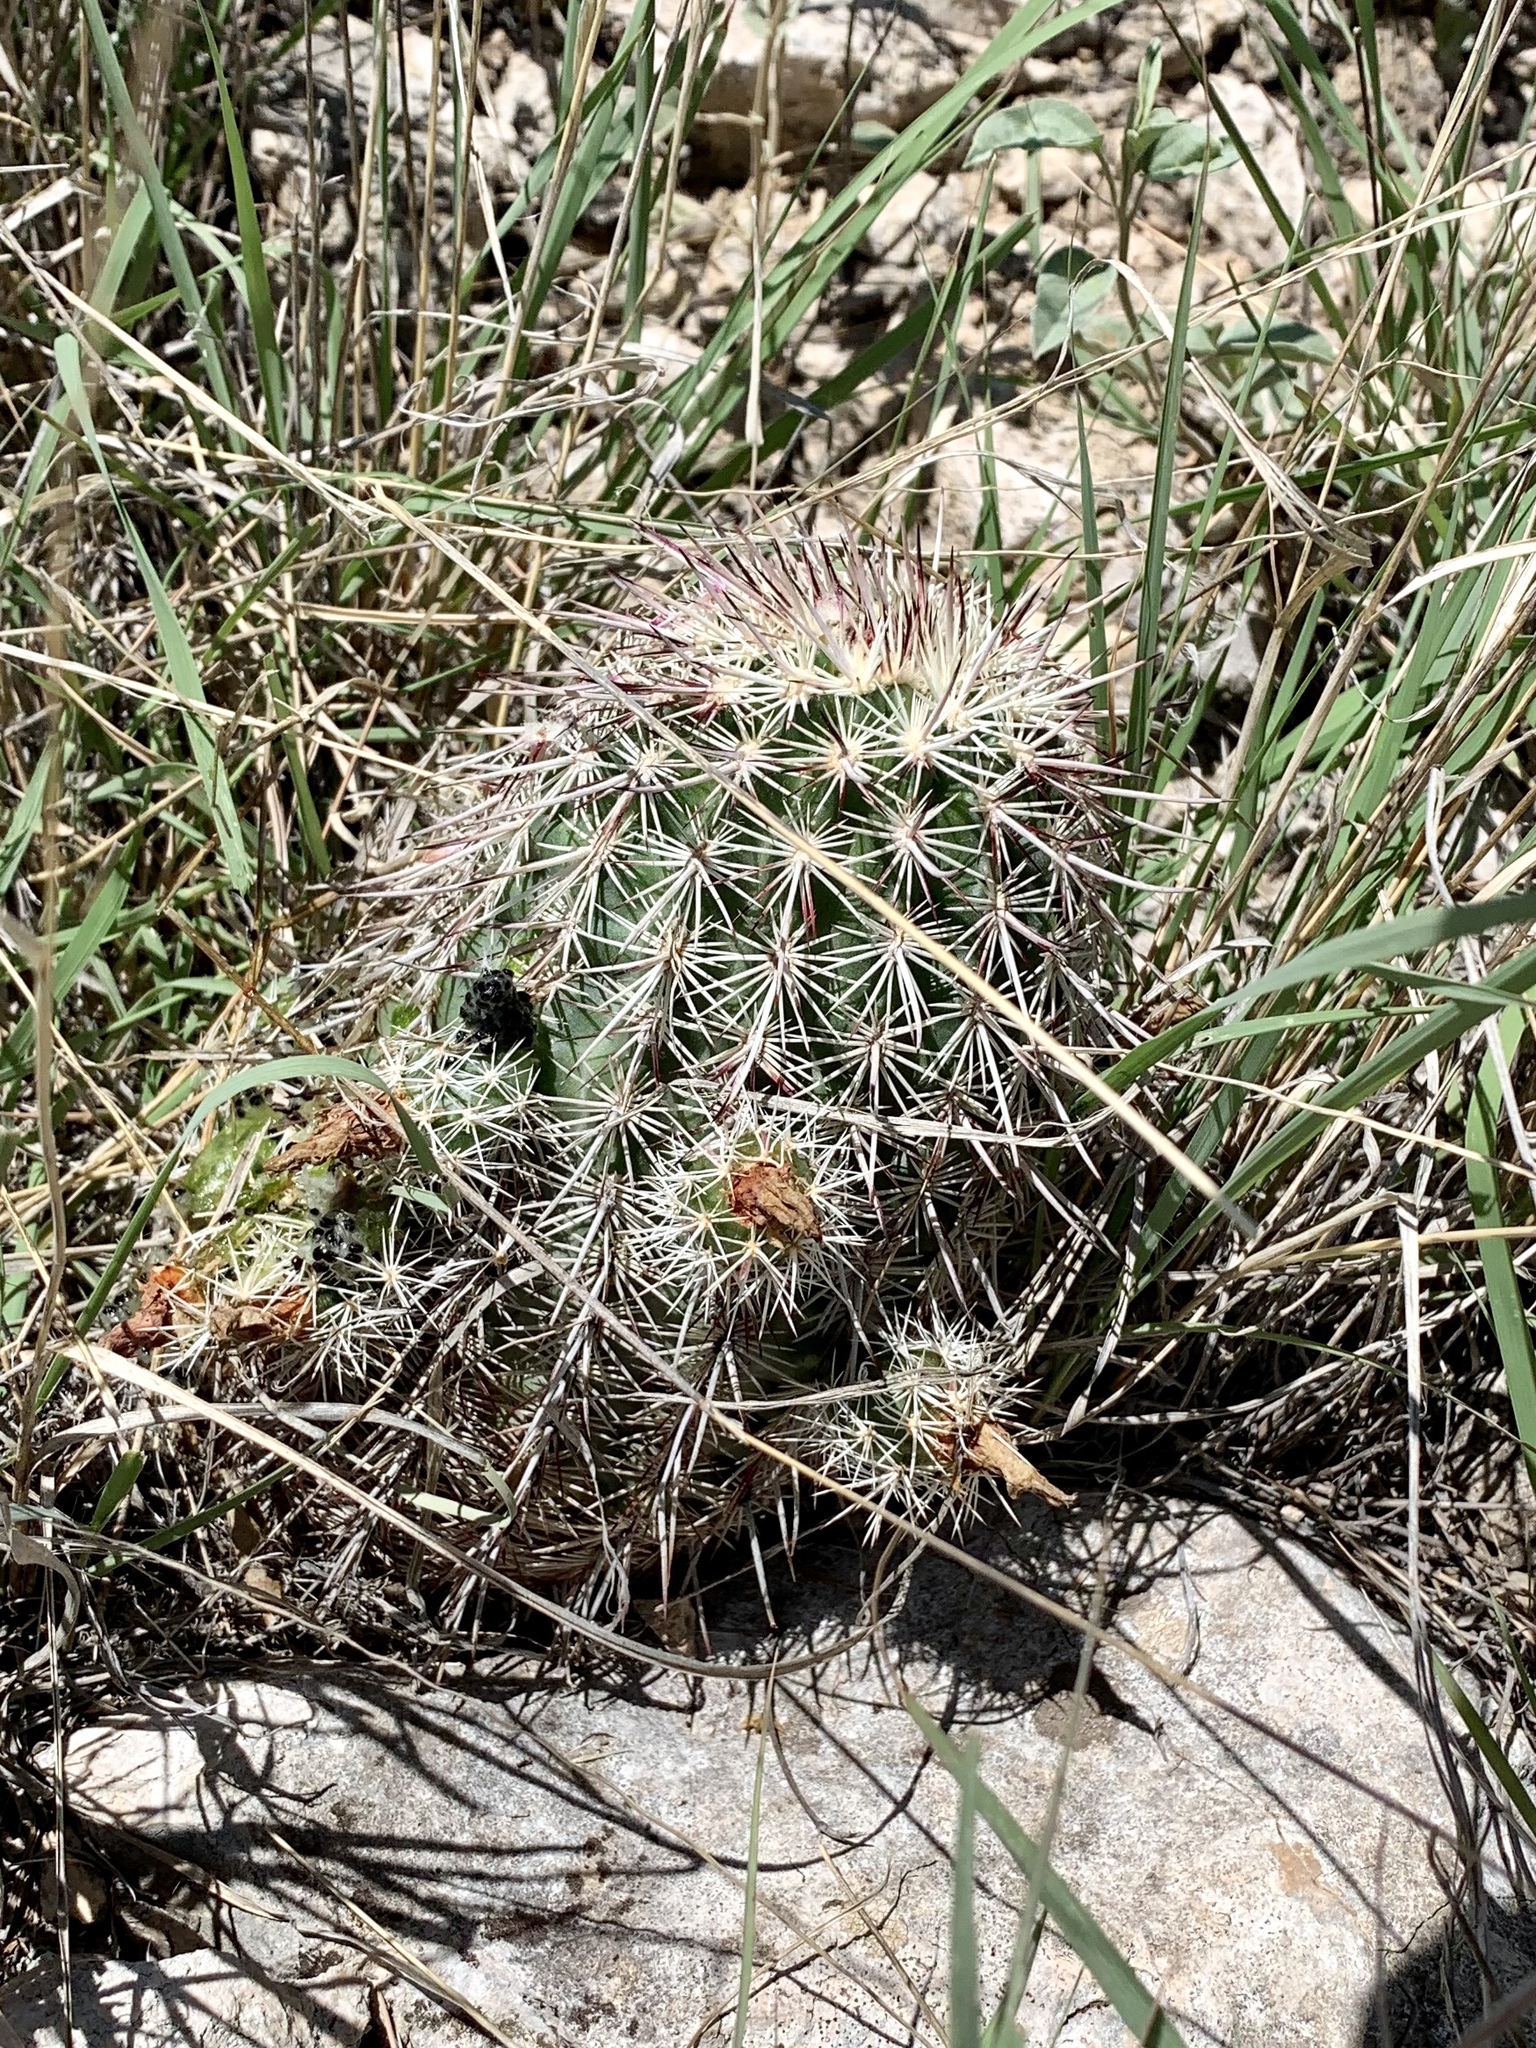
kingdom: Plantae
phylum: Tracheophyta
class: Magnoliopsida
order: Caryophyllales
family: Cactaceae
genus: Echinocereus
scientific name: Echinocereus viridiflorus
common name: Nylon hedgehog cactus
